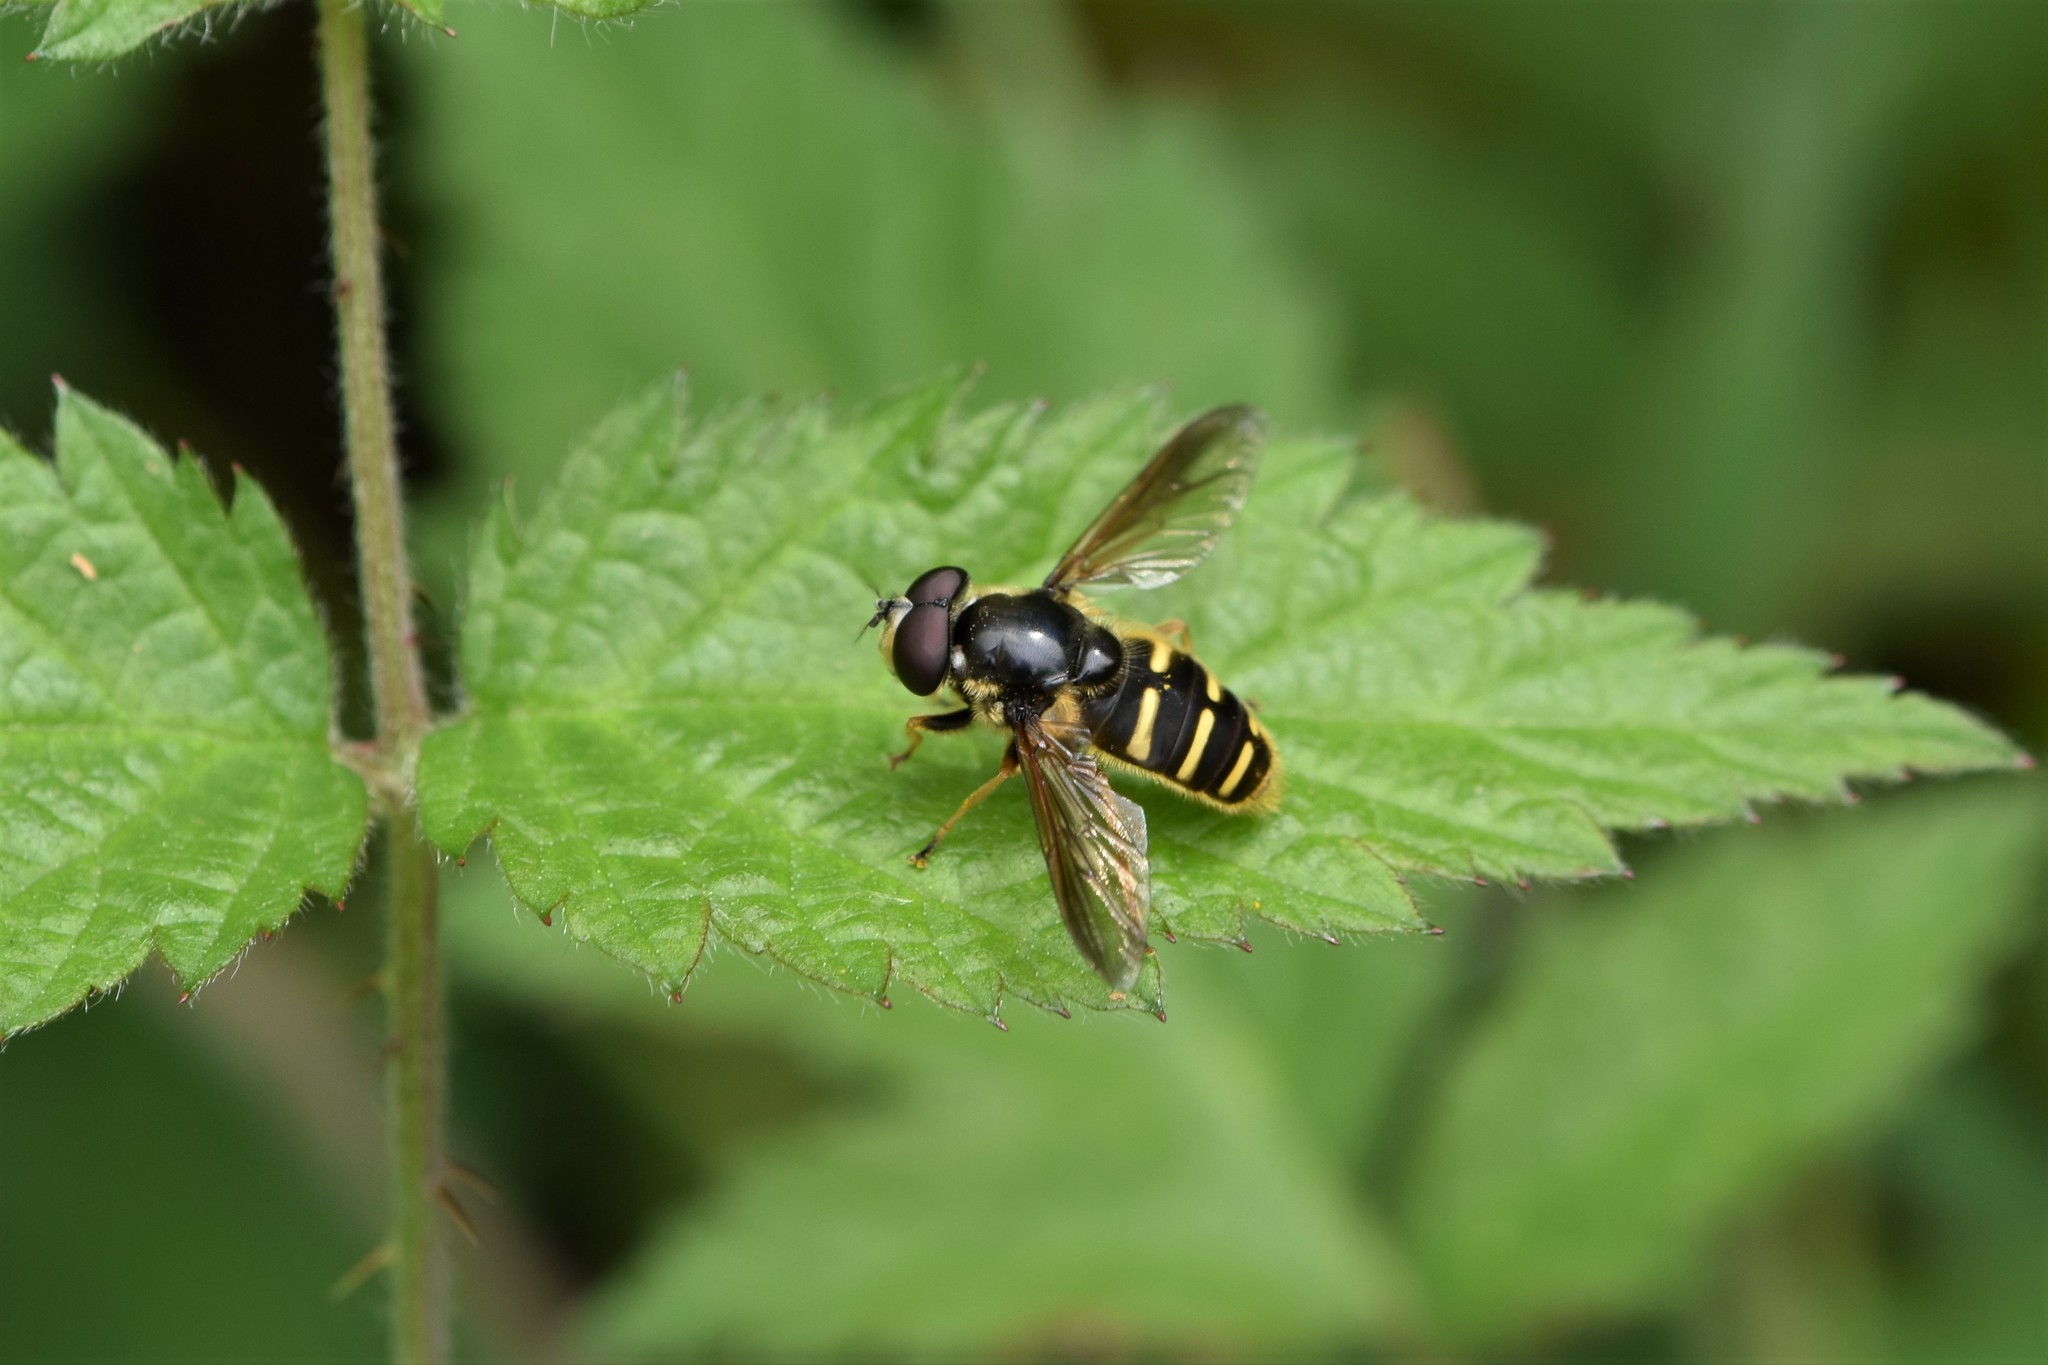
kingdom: Animalia
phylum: Arthropoda
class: Insecta
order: Diptera
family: Syrphidae
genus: Sericomyia
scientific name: Sericomyia chalcopyga
